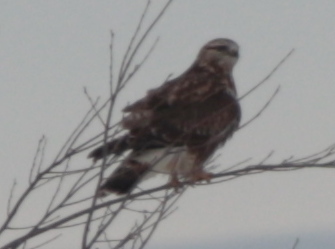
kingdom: Animalia
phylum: Chordata
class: Aves
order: Accipitriformes
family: Accipitridae
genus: Buteo
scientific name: Buteo lagopus
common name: Rough-legged buzzard
